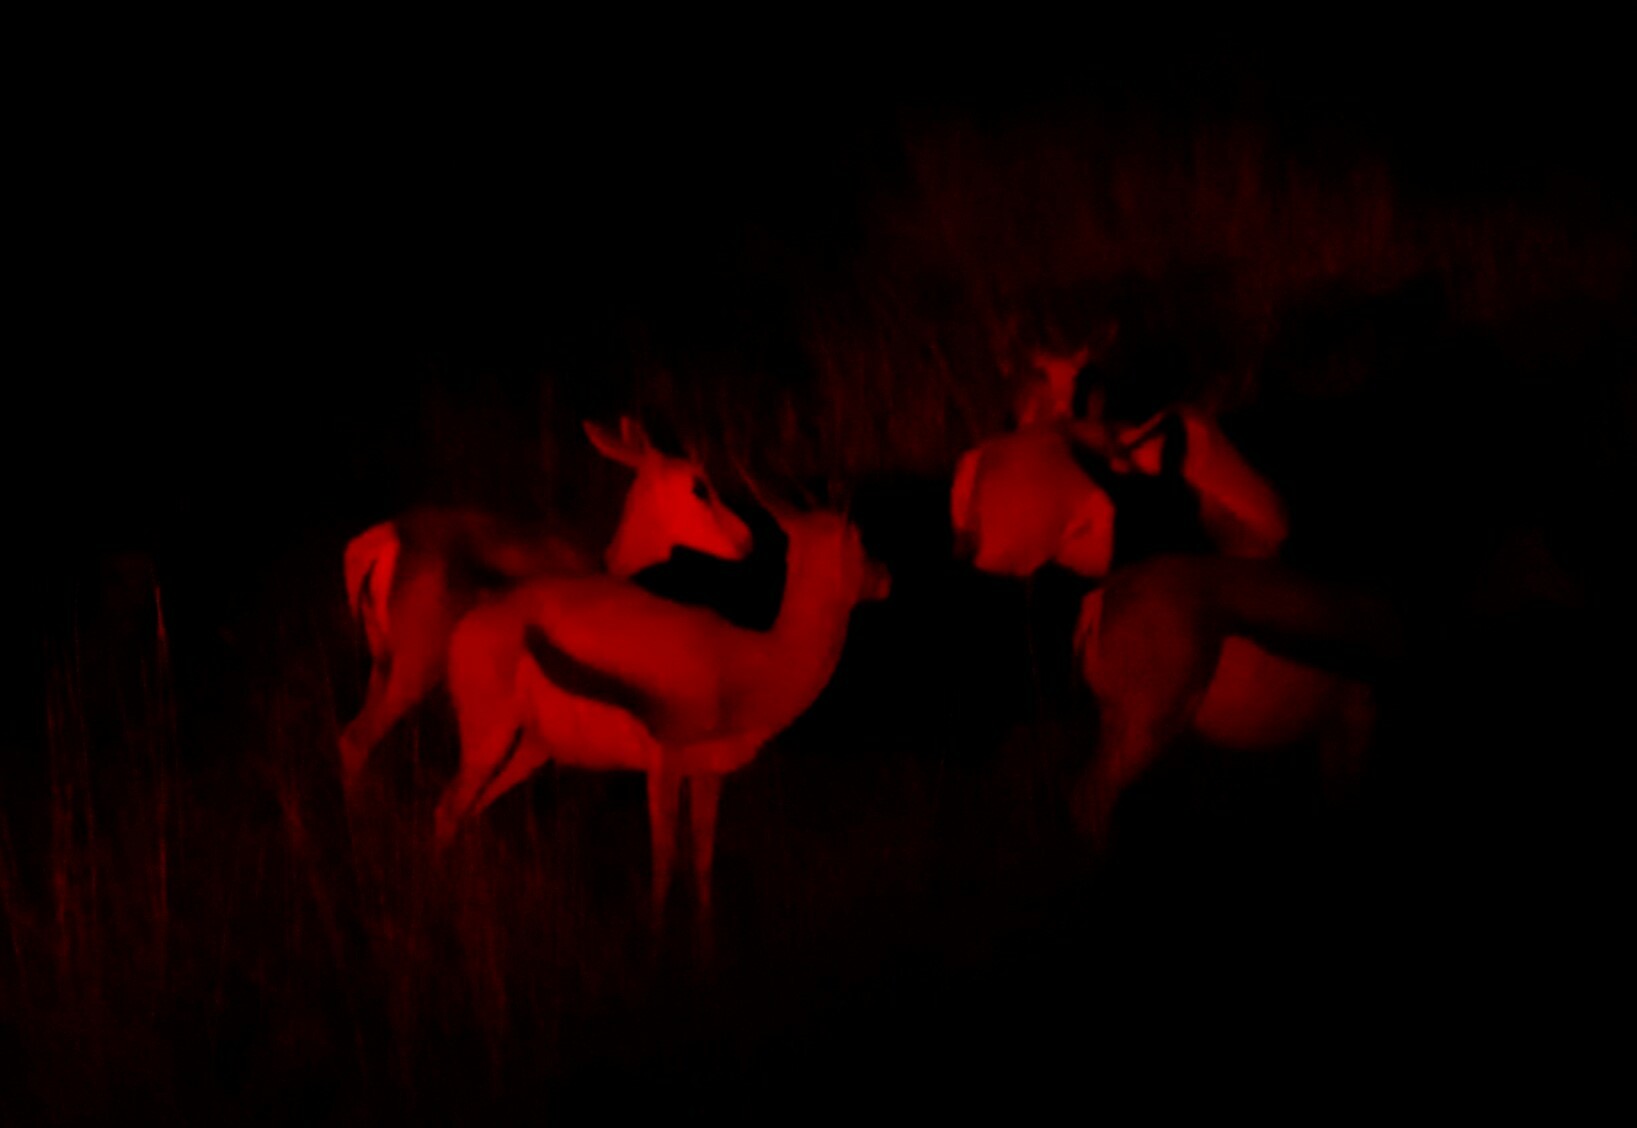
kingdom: Animalia
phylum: Chordata
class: Mammalia
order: Artiodactyla
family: Bovidae
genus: Antidorcas
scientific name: Antidorcas marsupialis
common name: Springbok
